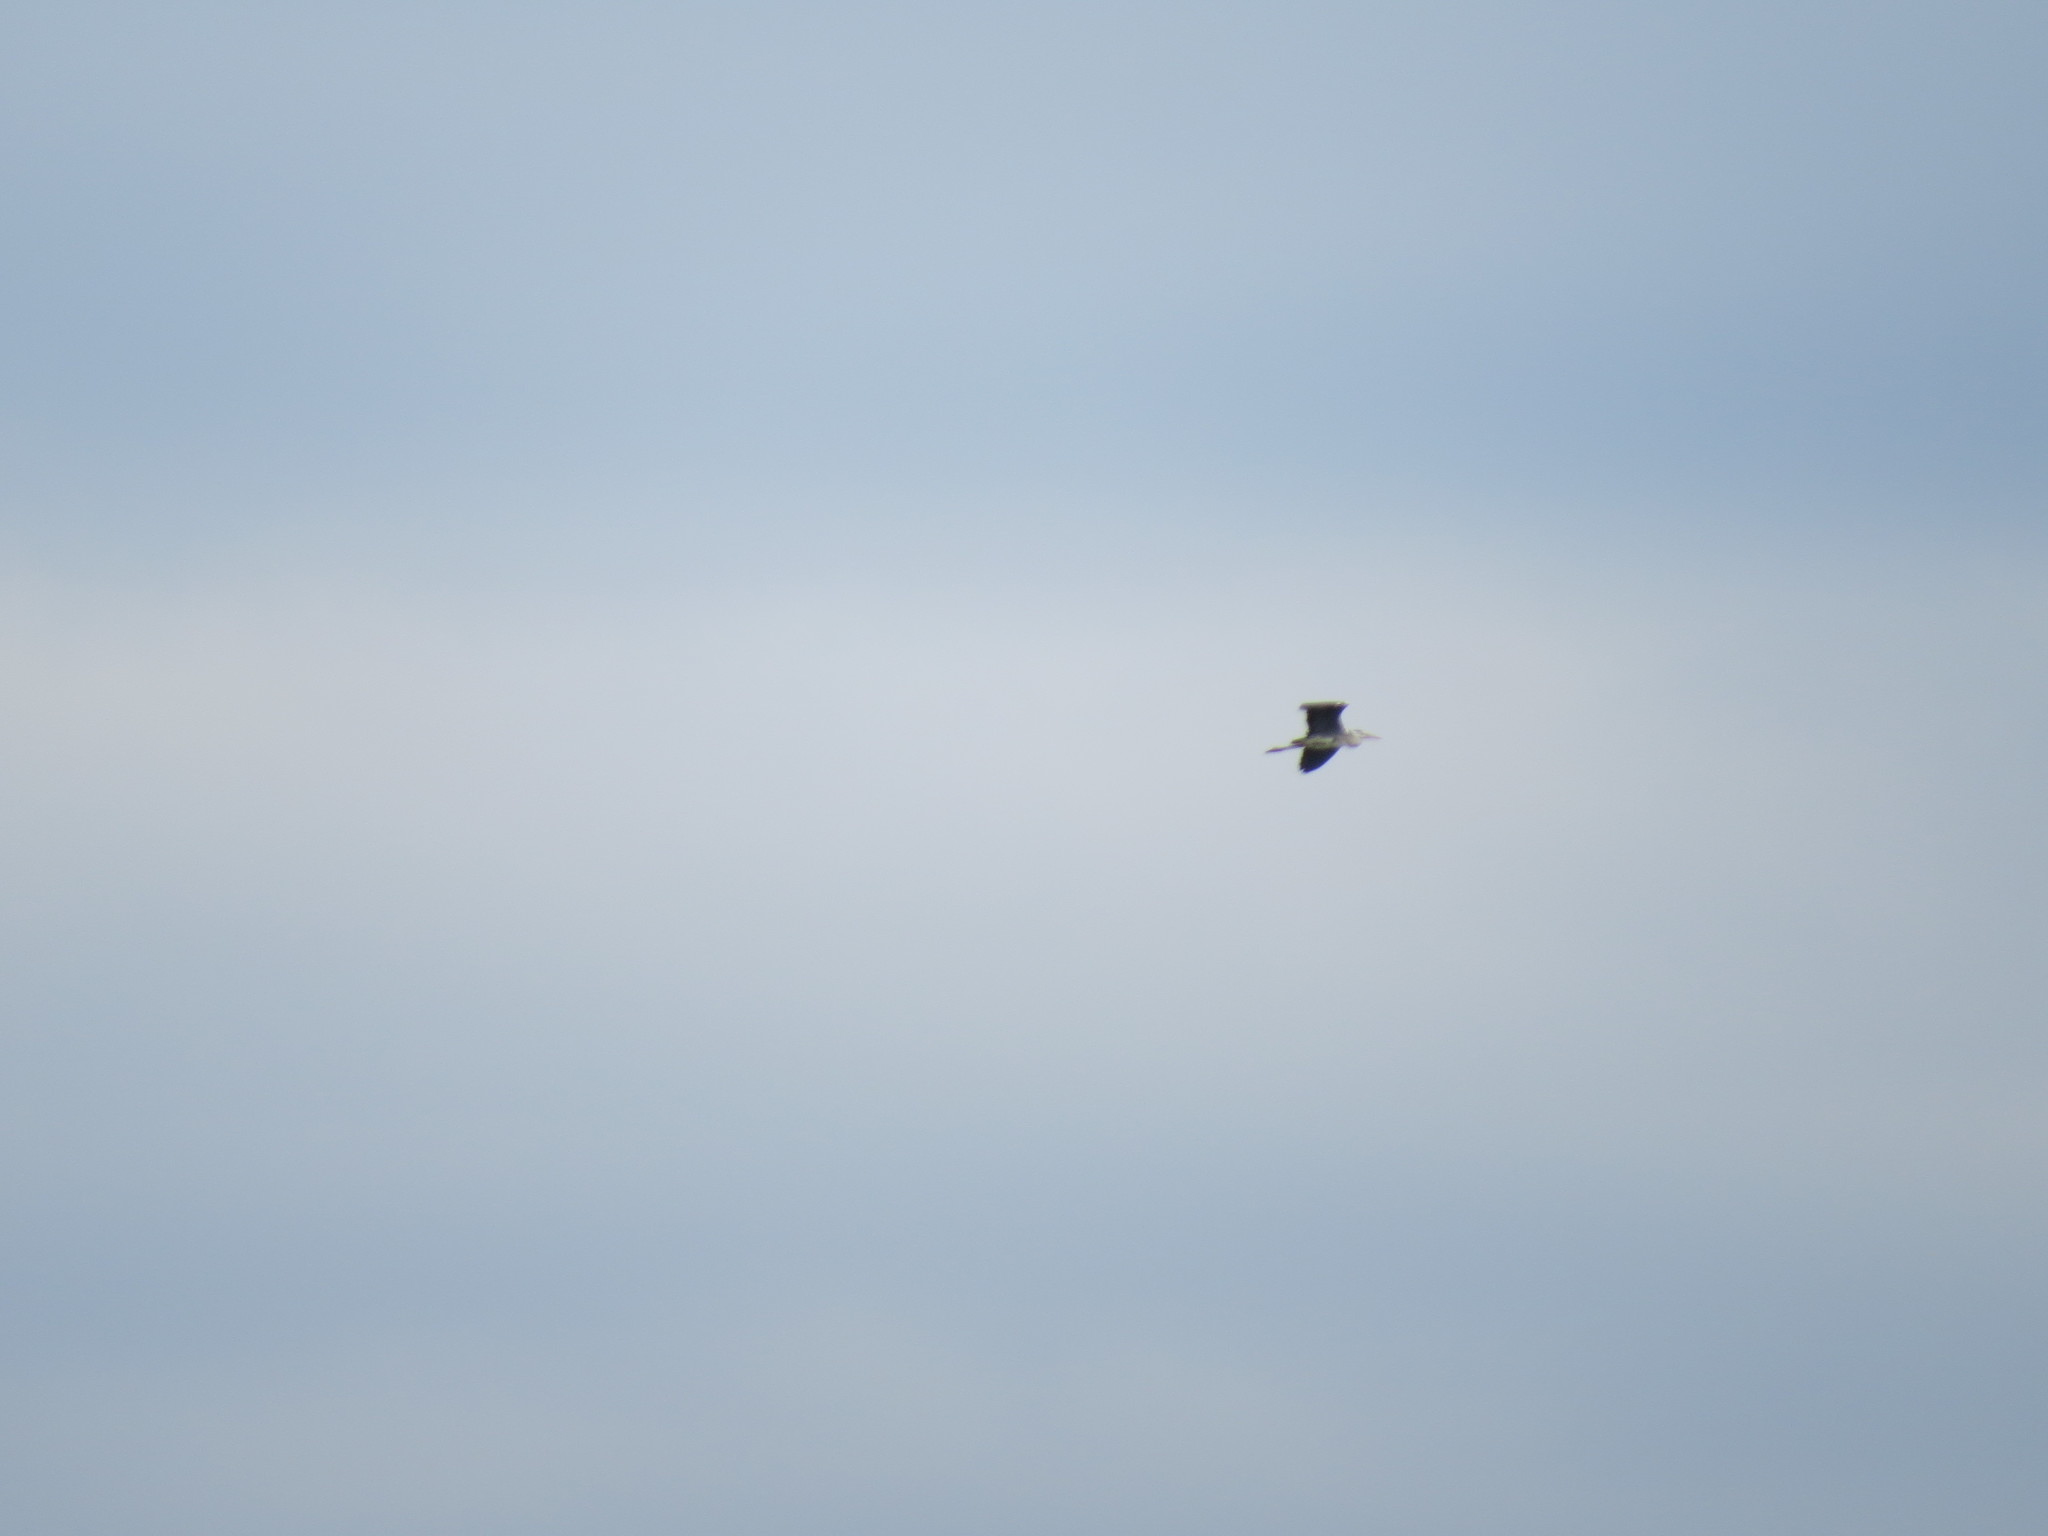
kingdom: Animalia
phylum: Chordata
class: Aves
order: Pelecaniformes
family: Ardeidae
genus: Ardea
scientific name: Ardea cinerea
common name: Grey heron
